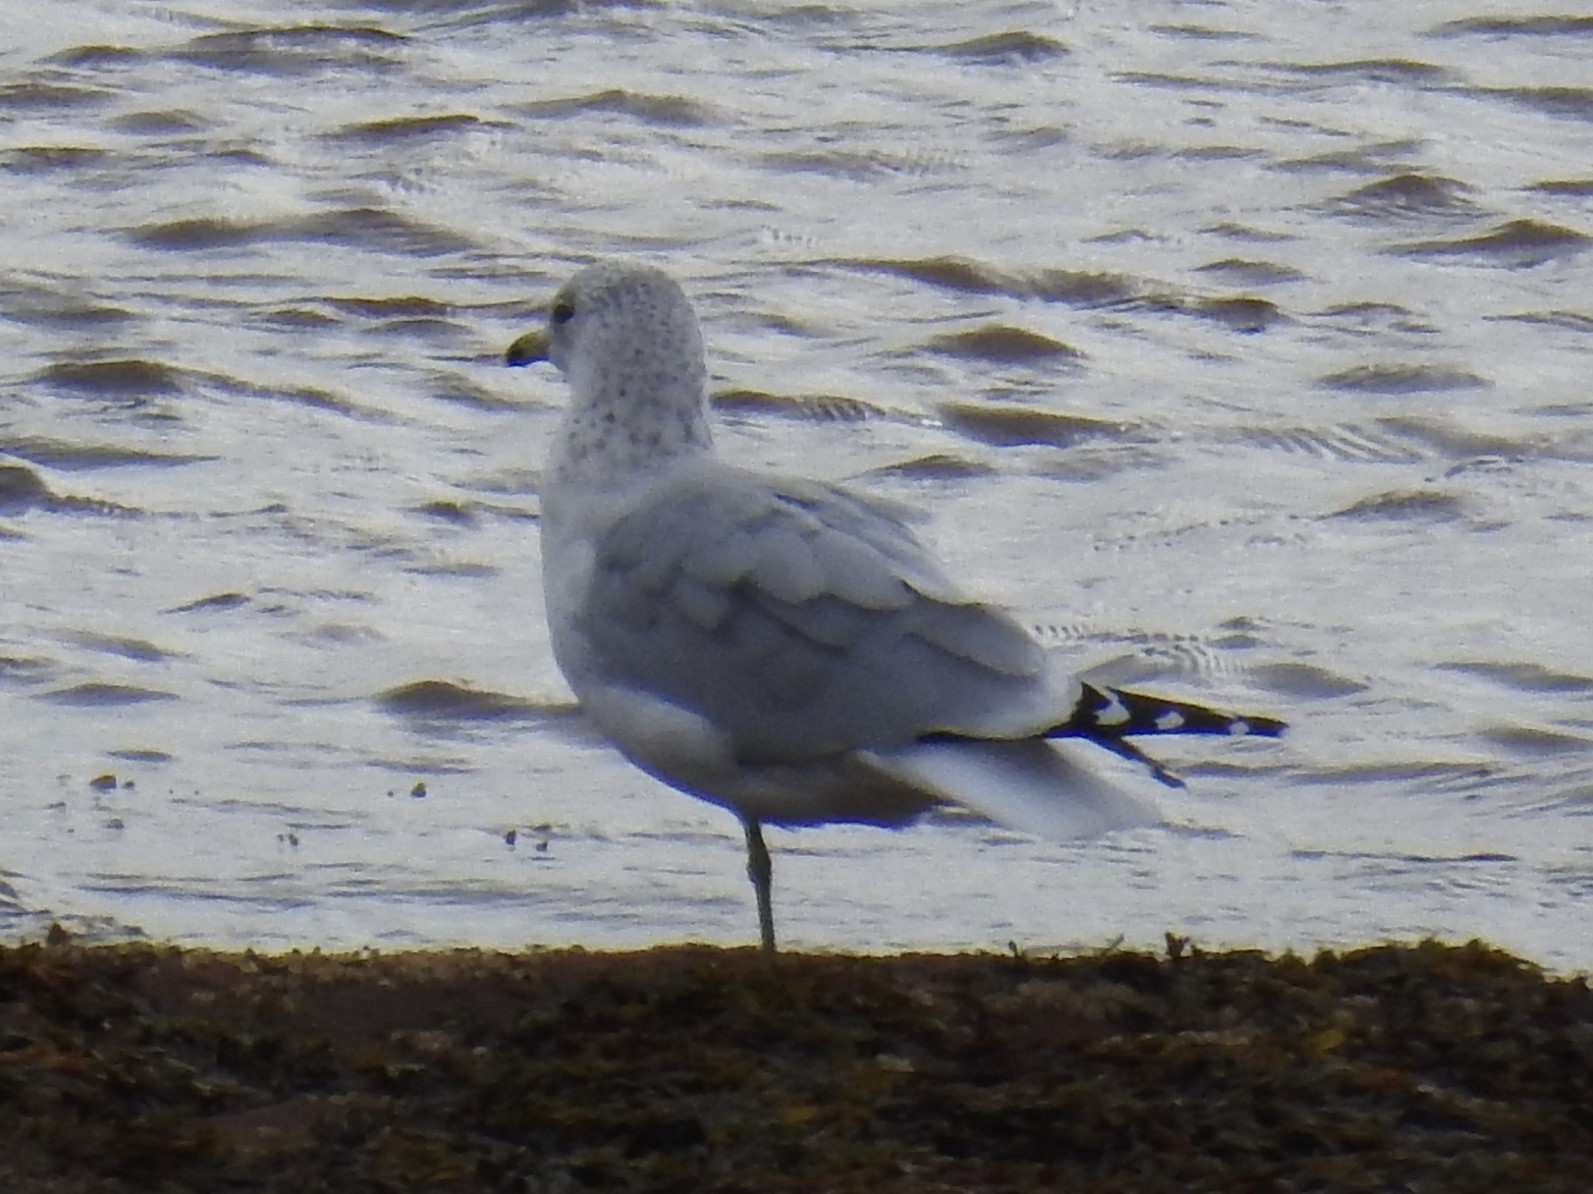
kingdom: Animalia
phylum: Chordata
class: Aves
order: Charadriiformes
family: Laridae
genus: Larus
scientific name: Larus delawarensis
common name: Ring-billed gull
